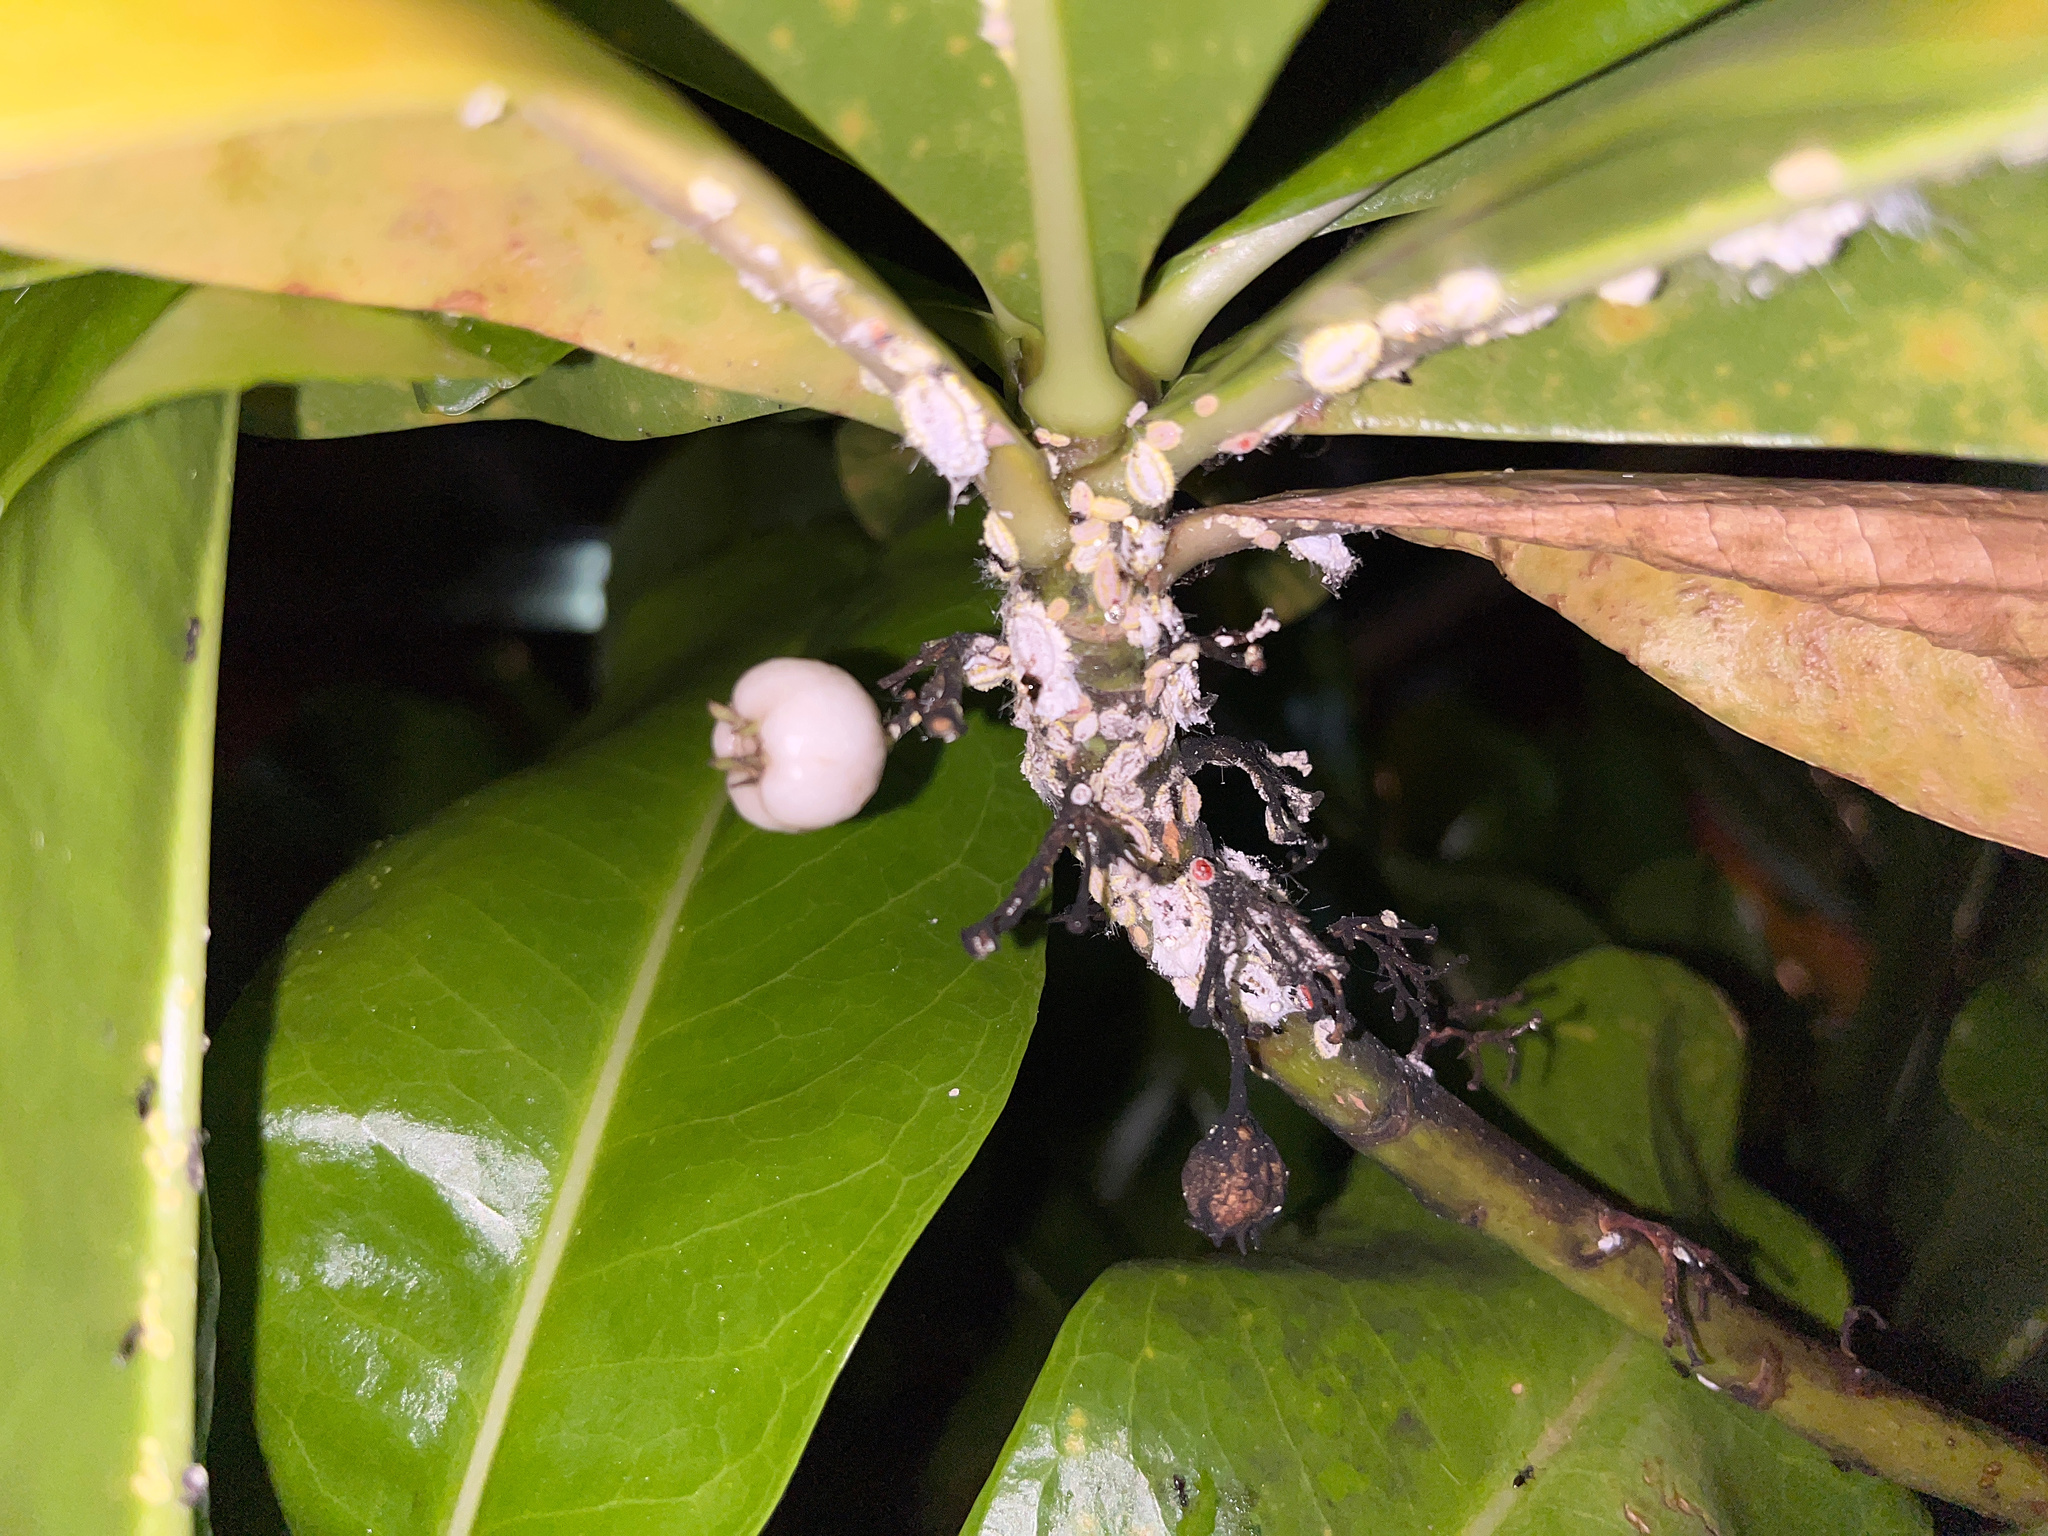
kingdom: Plantae
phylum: Tracheophyta
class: Magnoliopsida
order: Asterales
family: Goodeniaceae
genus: Scaevola
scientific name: Scaevola taccada
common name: Sea lettucetree
